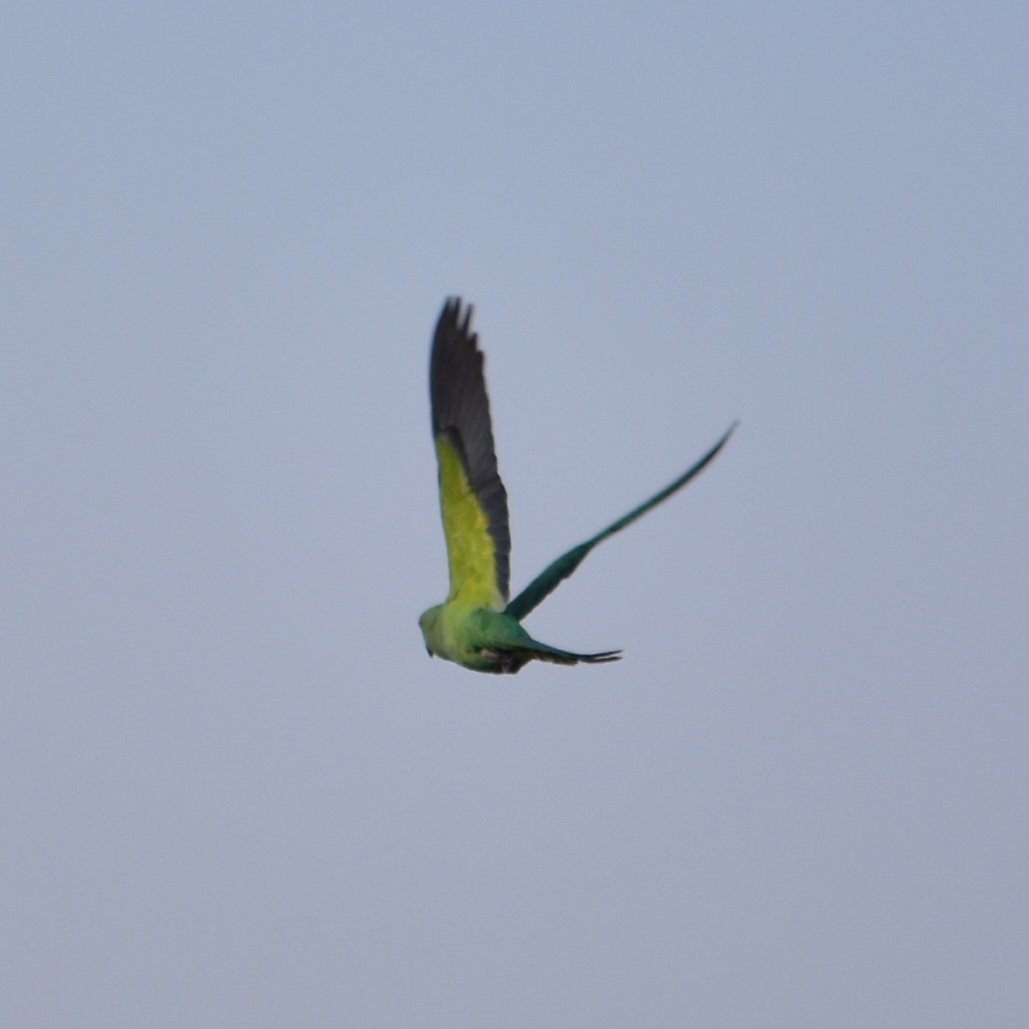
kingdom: Animalia
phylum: Chordata
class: Aves
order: Psittaciformes
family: Psittacidae
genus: Psittacula
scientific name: Psittacula krameri
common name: Rose-ringed parakeet
